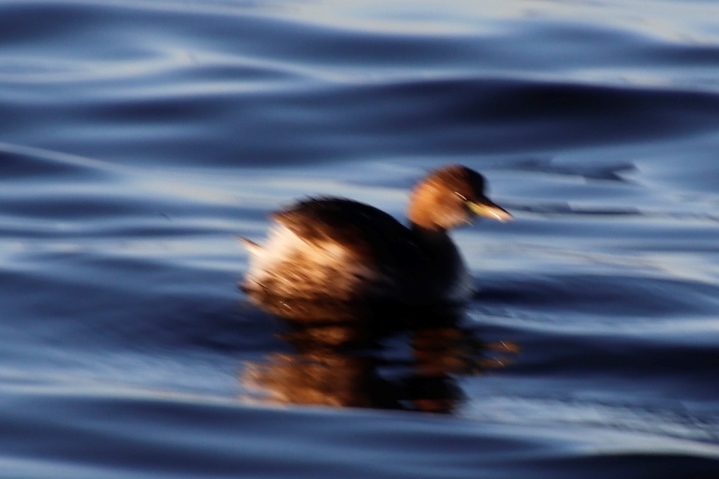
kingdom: Animalia
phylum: Chordata
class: Aves
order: Podicipediformes
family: Podicipedidae
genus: Tachybaptus
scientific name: Tachybaptus ruficollis
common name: Little grebe
